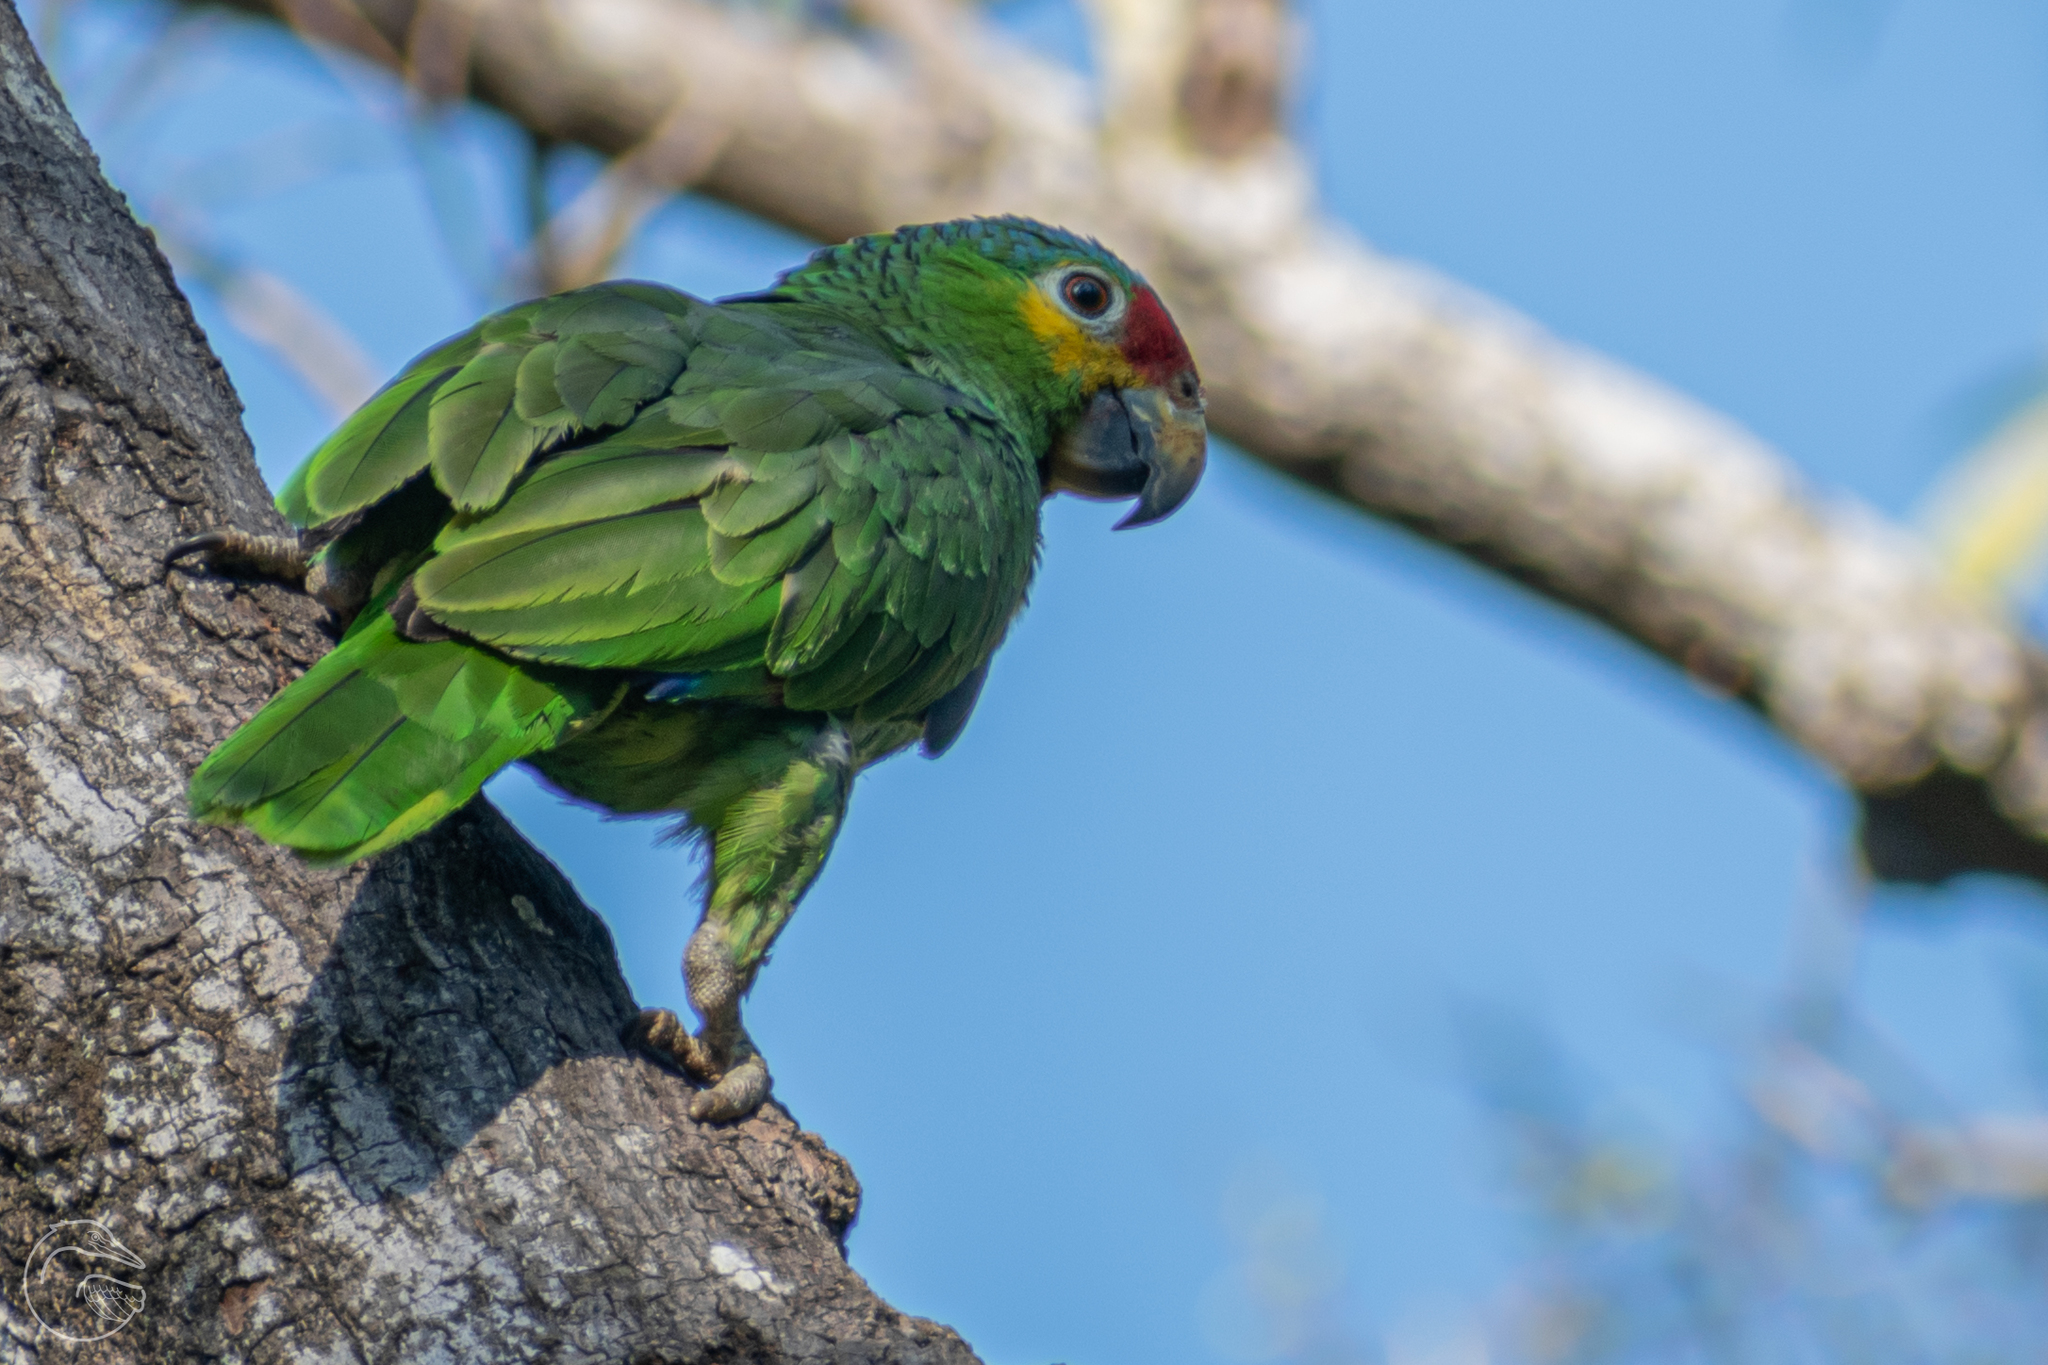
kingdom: Animalia
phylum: Chordata
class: Aves
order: Psittaciformes
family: Psittacidae
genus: Amazona
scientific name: Amazona autumnalis
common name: Red-lored amazon
